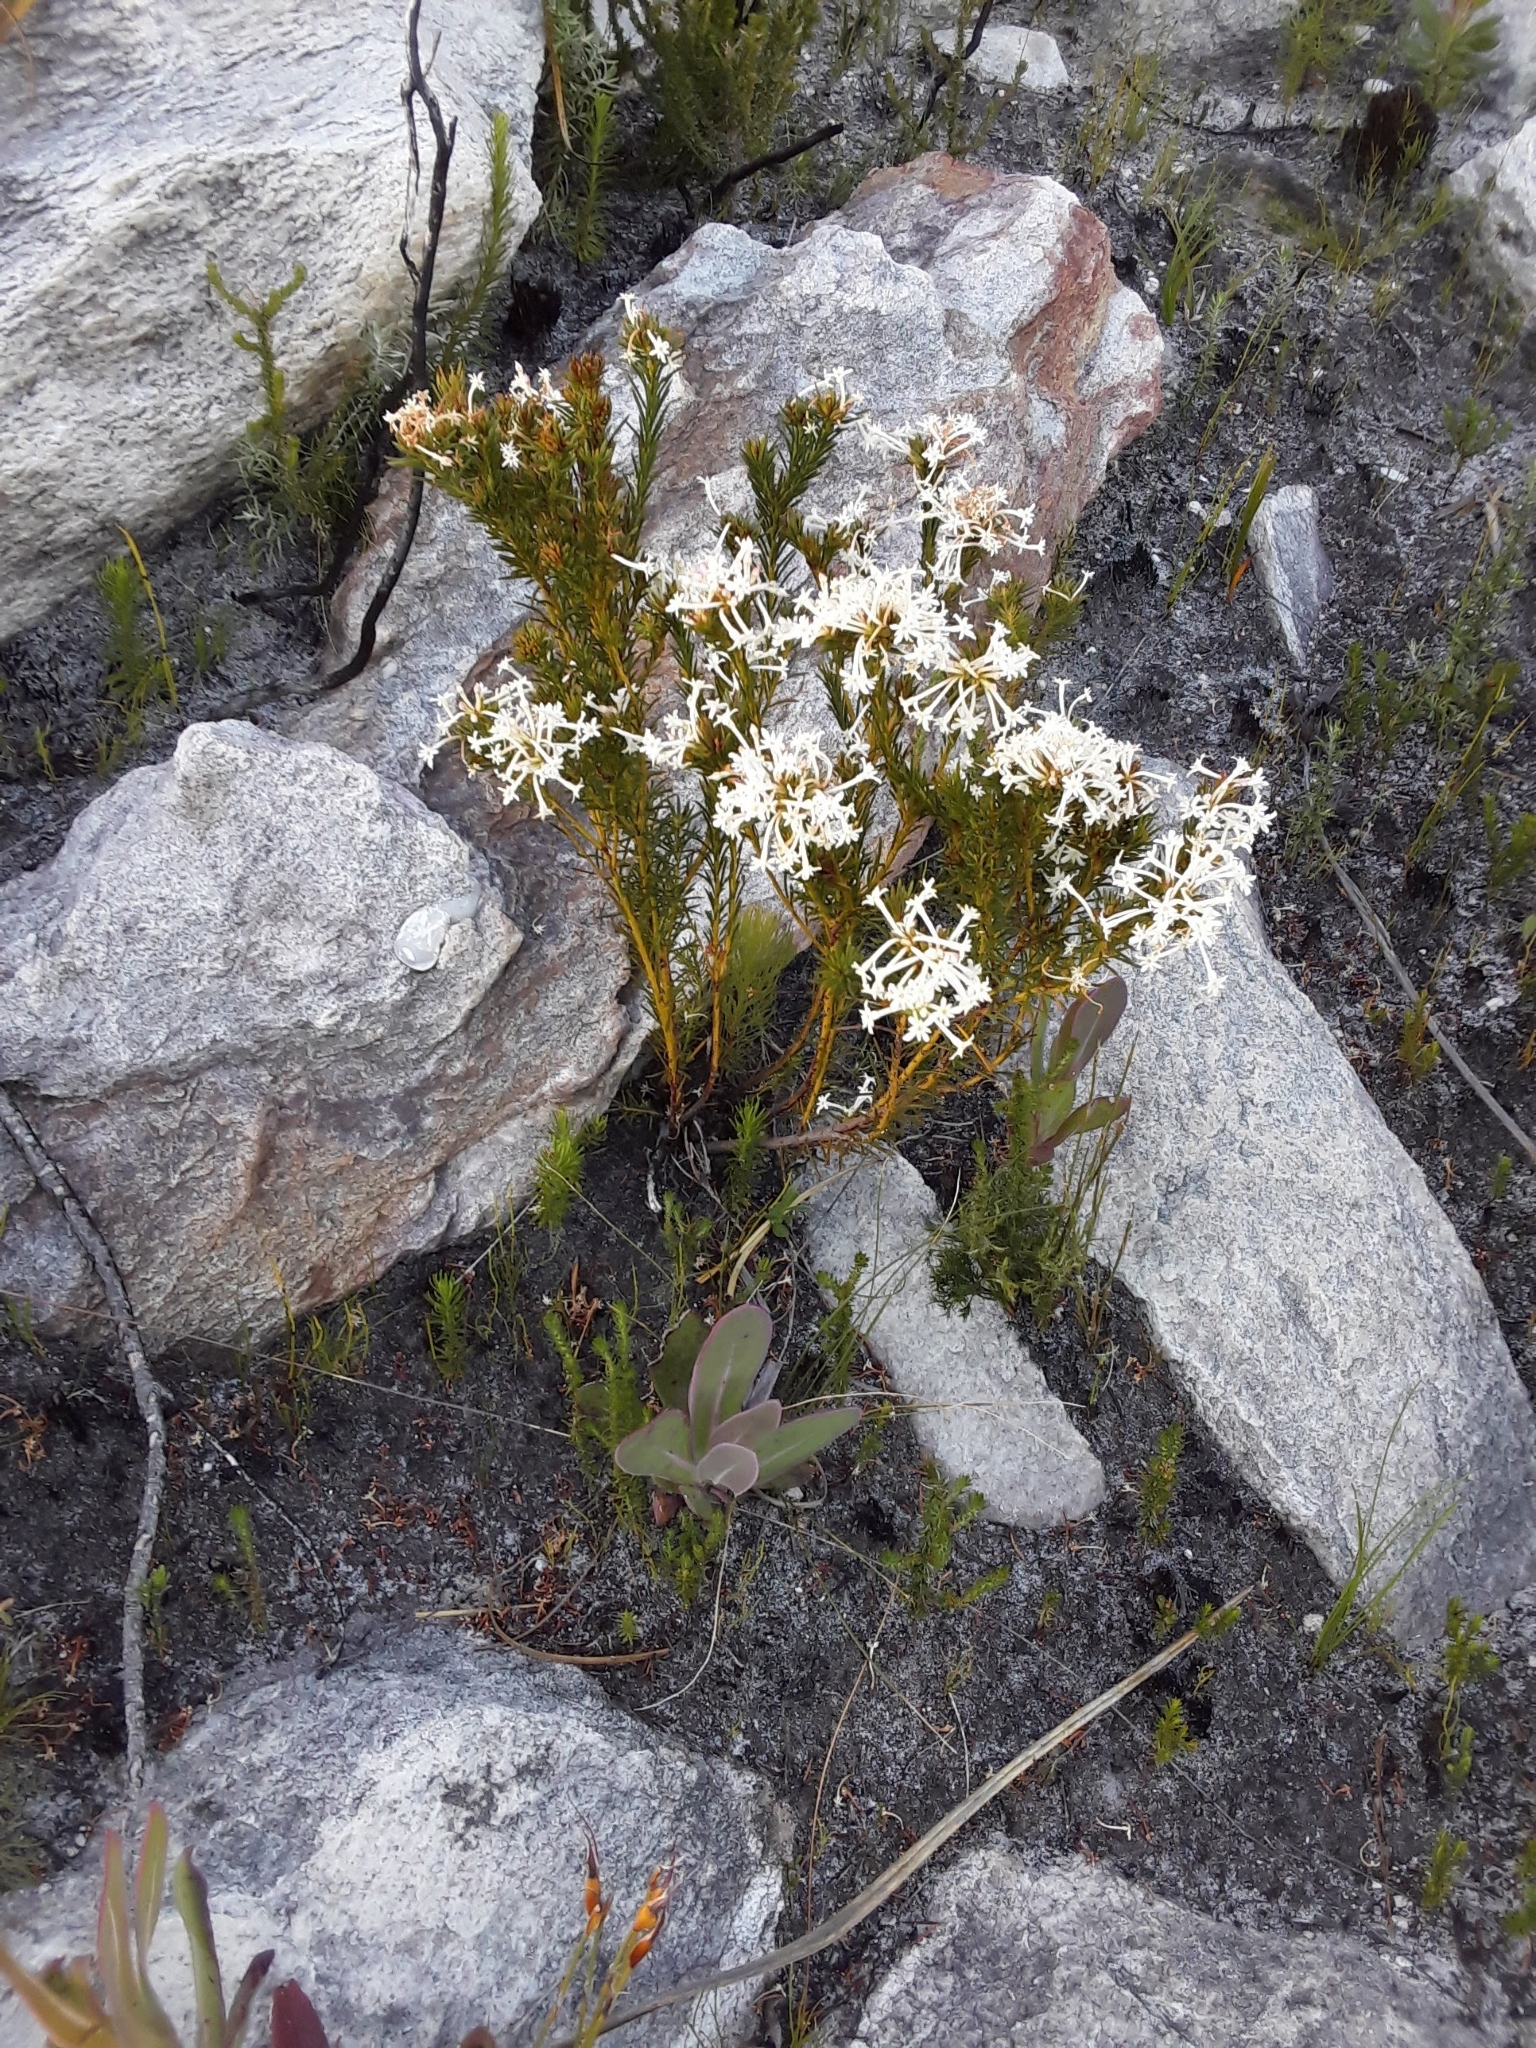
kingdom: Plantae
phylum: Tracheophyta
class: Magnoliopsida
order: Malvales
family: Thymelaeaceae
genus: Gnidia
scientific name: Gnidia pinifolia
